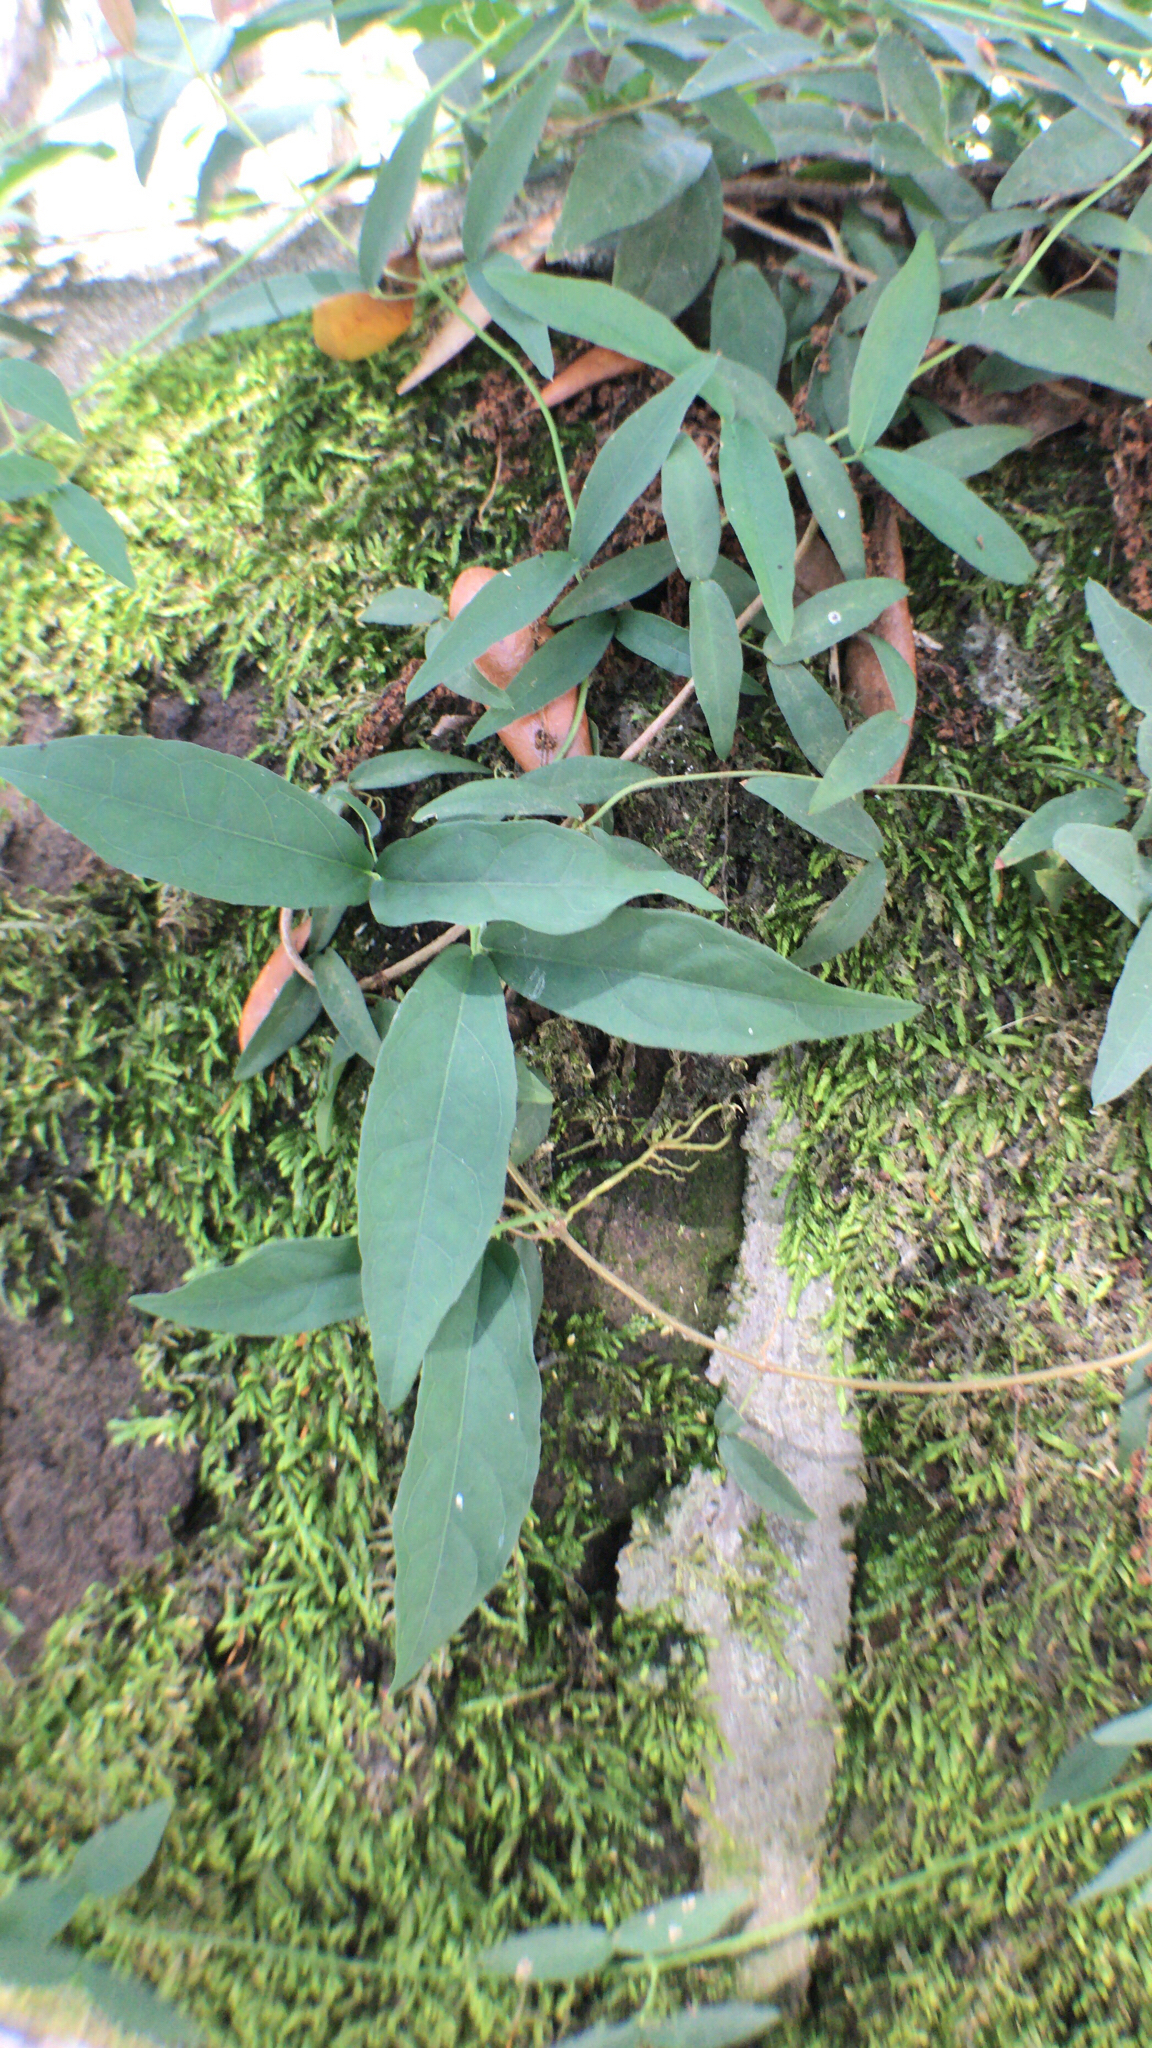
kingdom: Plantae
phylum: Tracheophyta
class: Magnoliopsida
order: Lamiales
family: Bignoniaceae
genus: Bignonia
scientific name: Bignonia capreolata
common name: Crossvine
